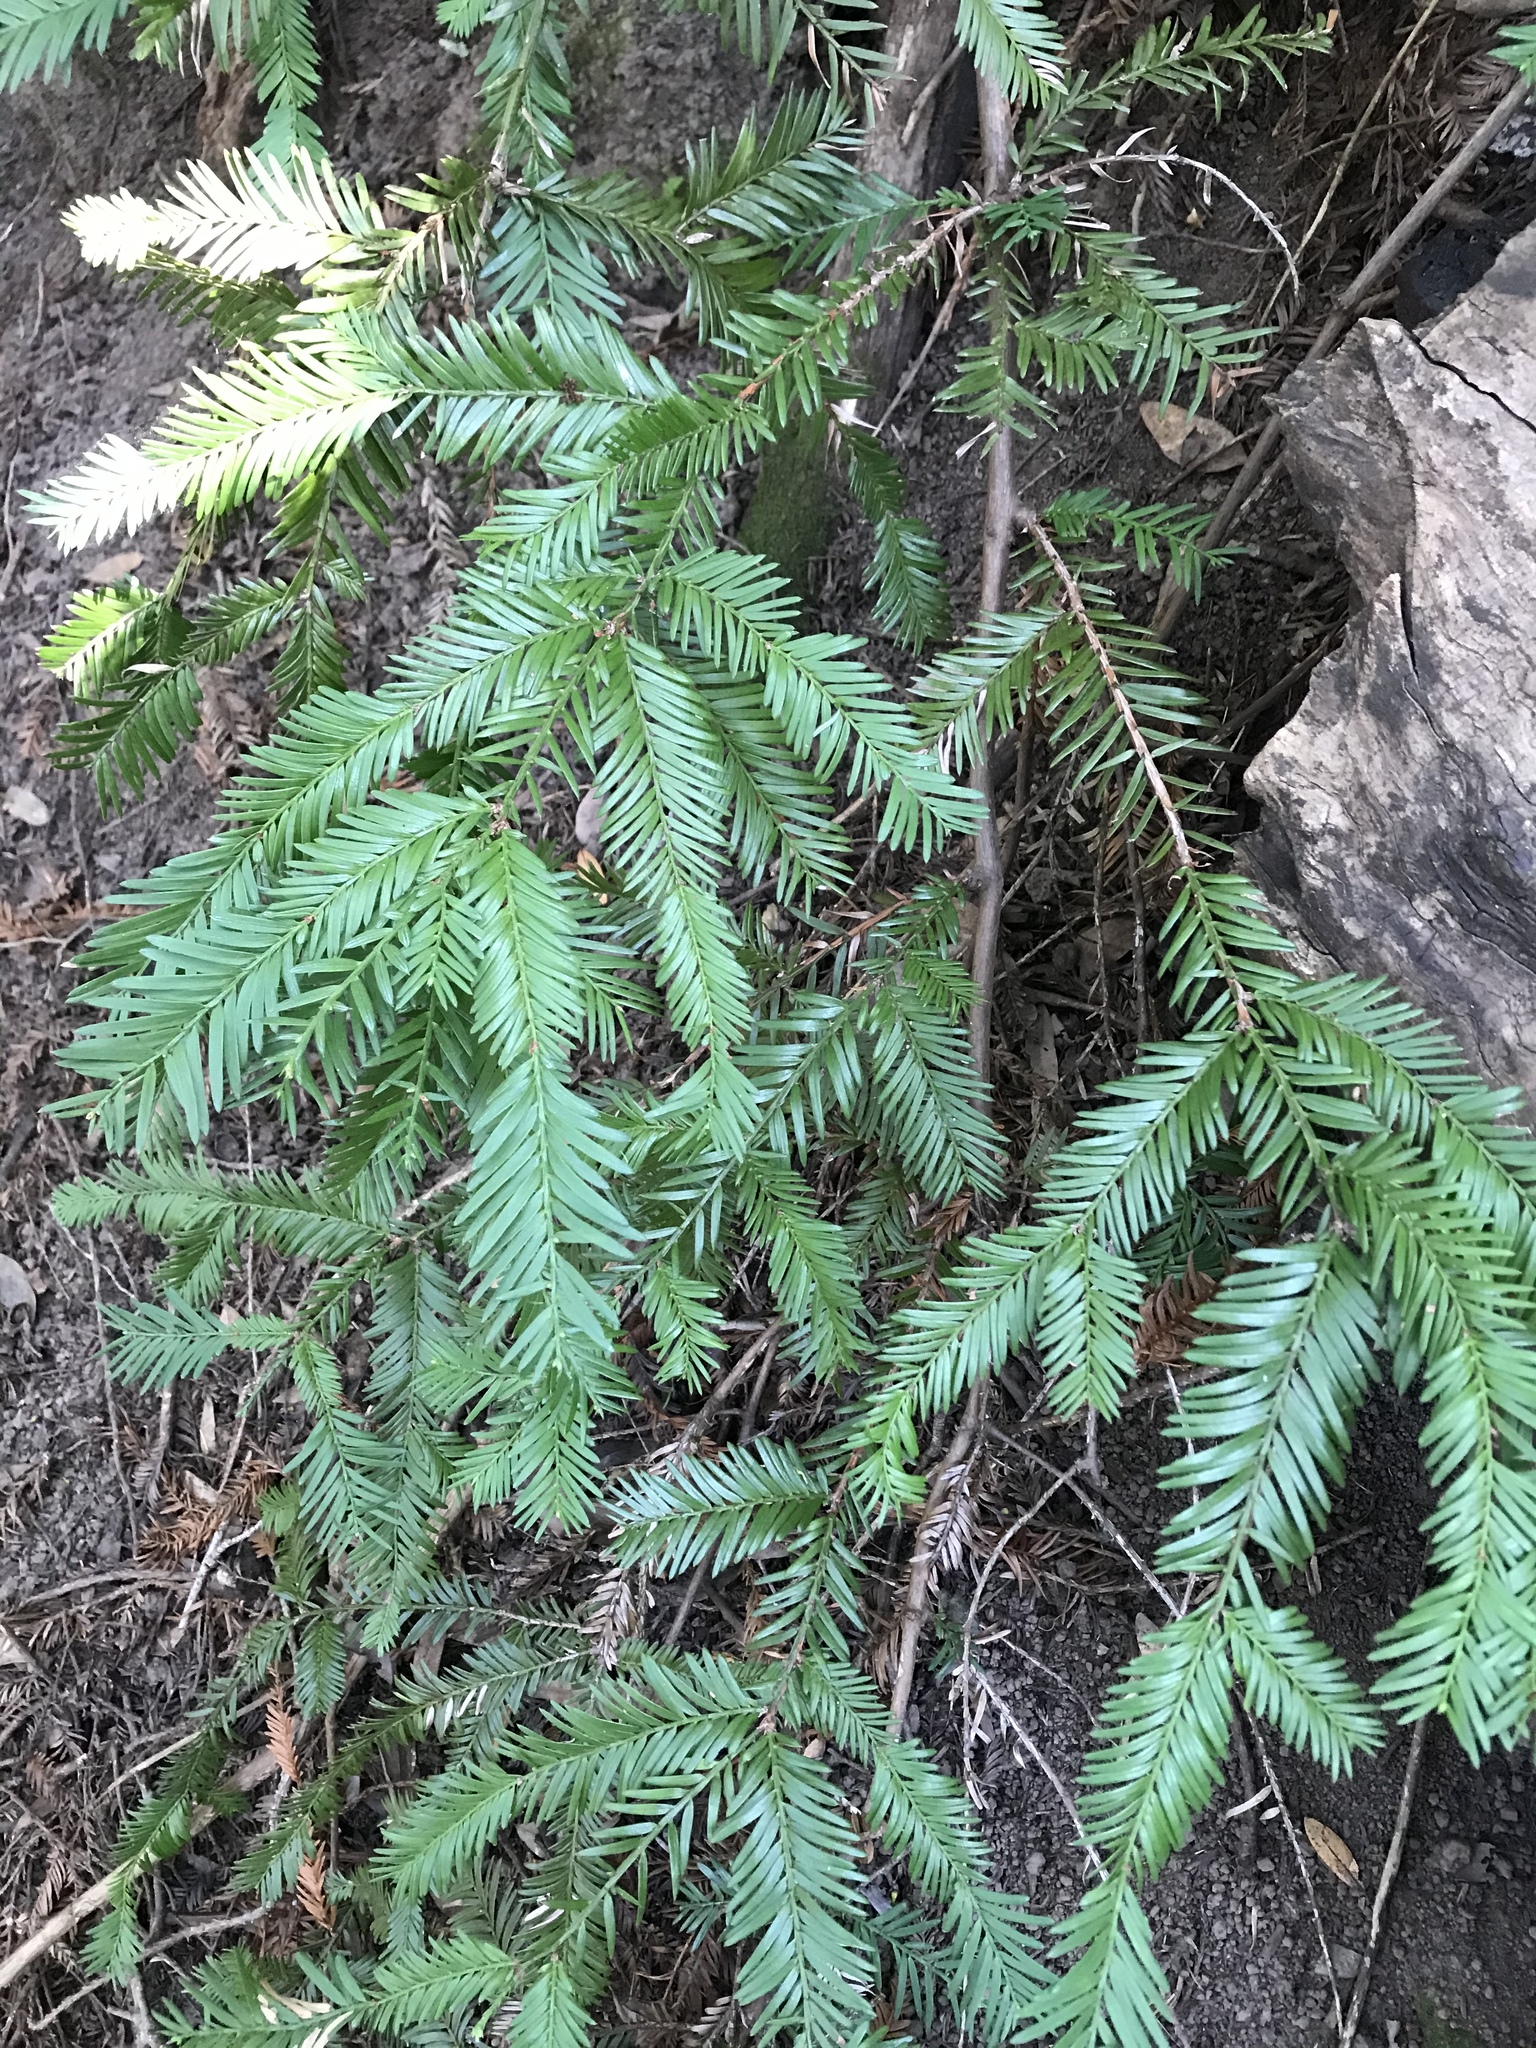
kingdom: Plantae
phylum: Tracheophyta
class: Pinopsida
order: Pinales
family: Cupressaceae
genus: Sequoia
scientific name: Sequoia sempervirens
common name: Coast redwood
